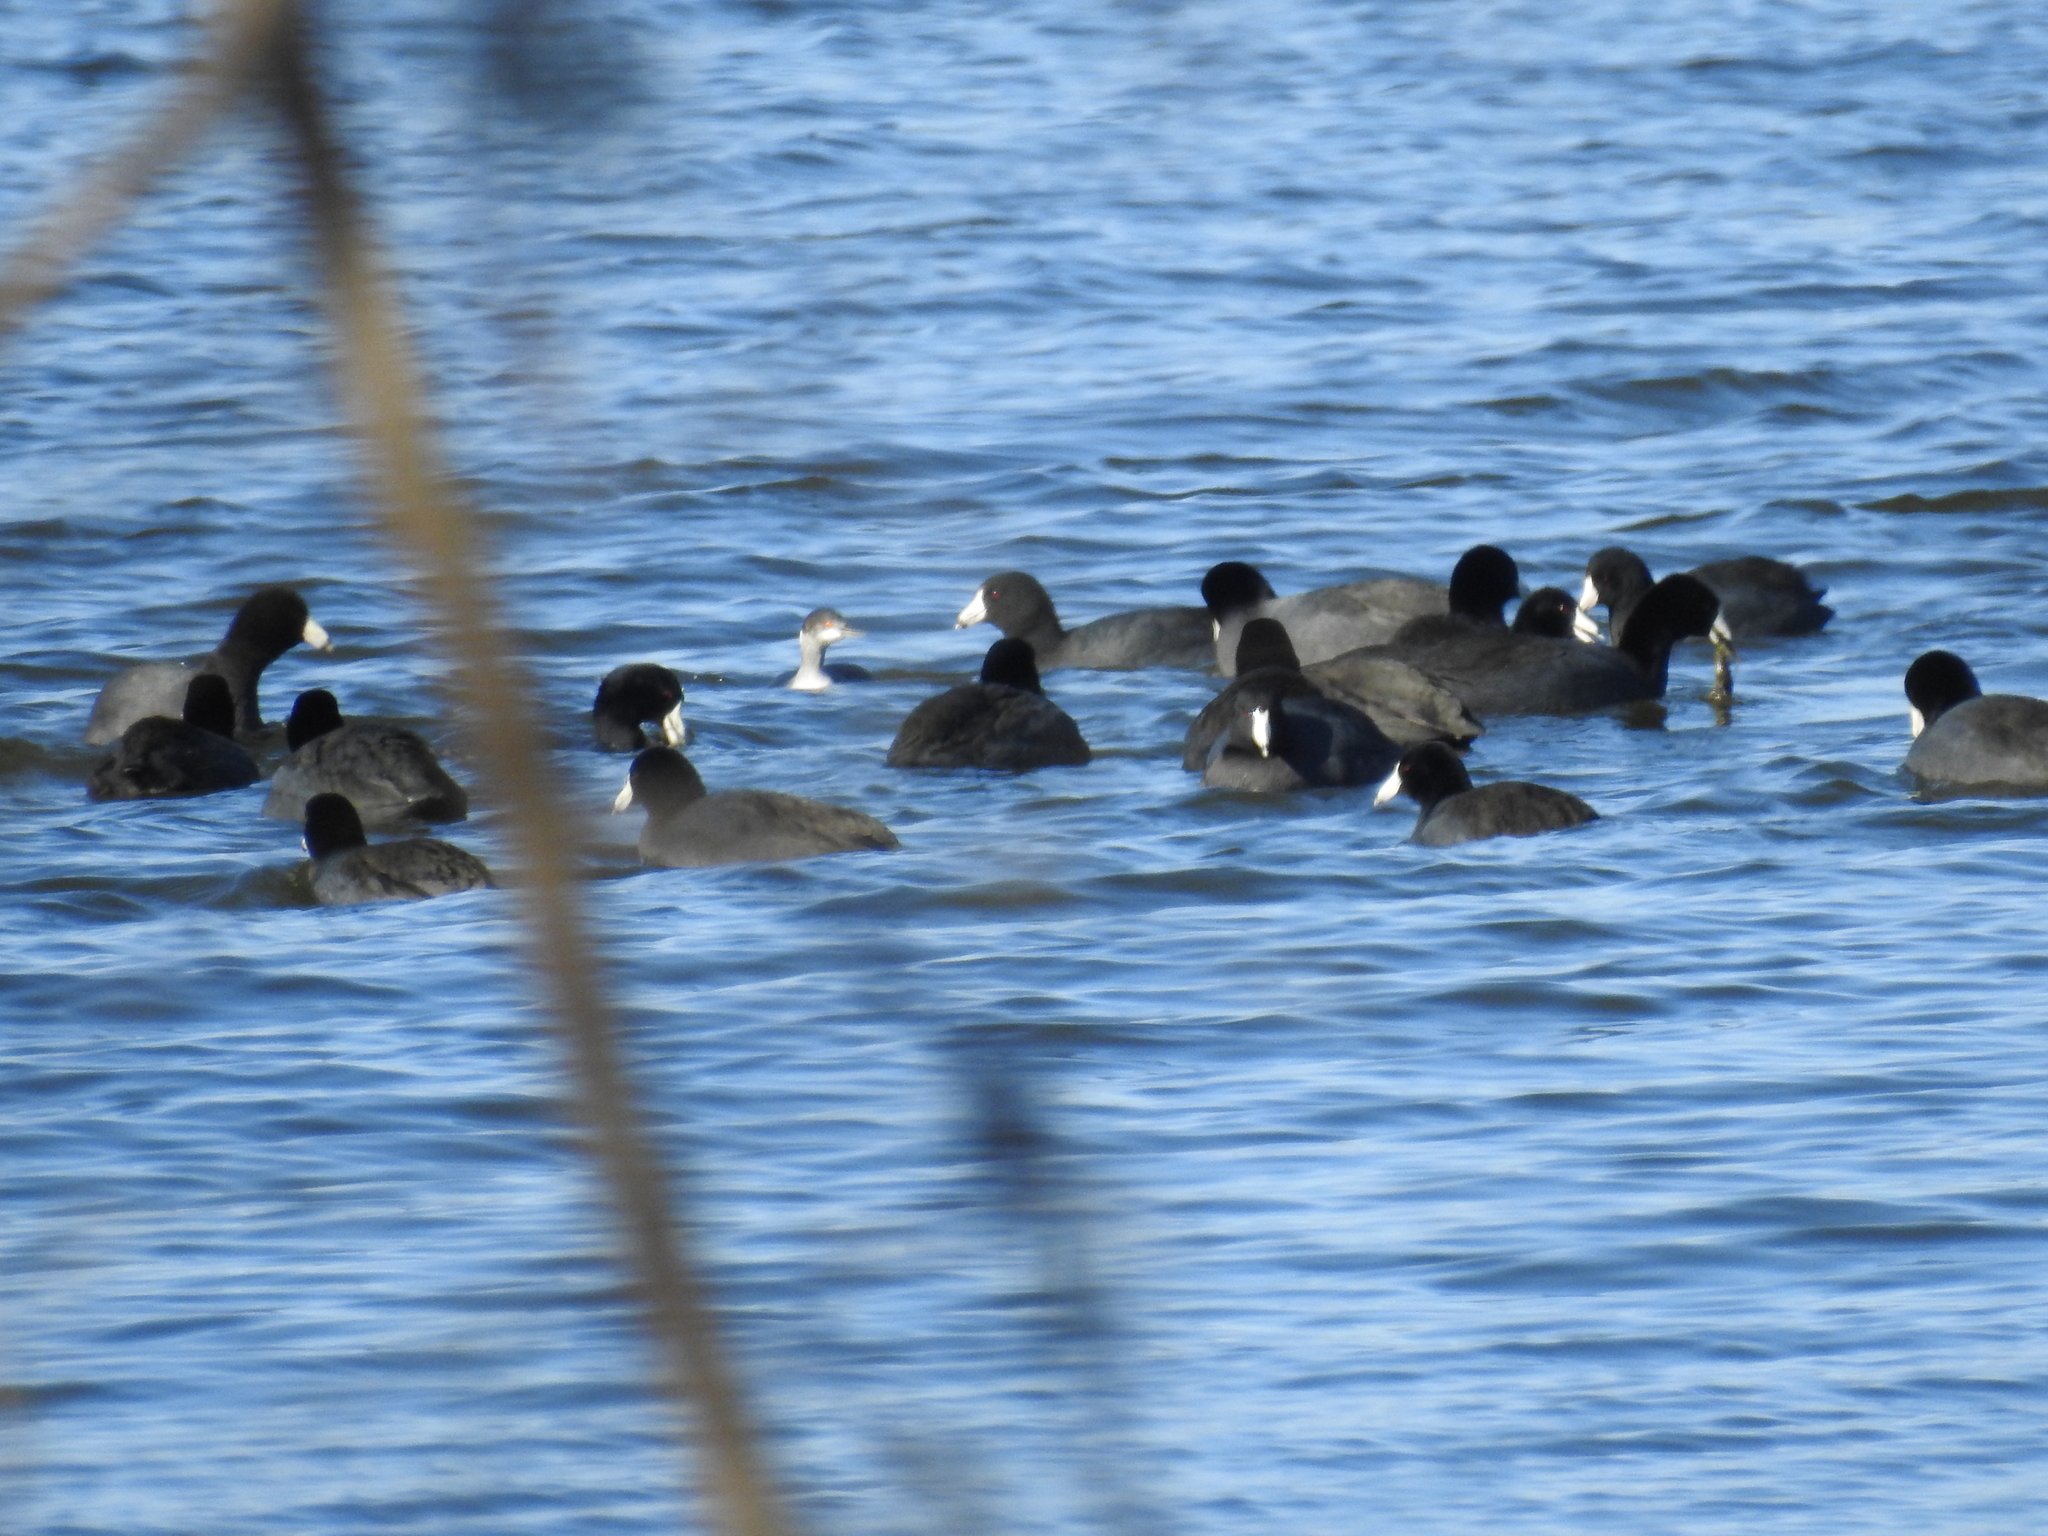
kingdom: Animalia
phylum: Chordata
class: Aves
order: Podicipediformes
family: Podicipedidae
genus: Podiceps
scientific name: Podiceps auritus
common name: Horned grebe
